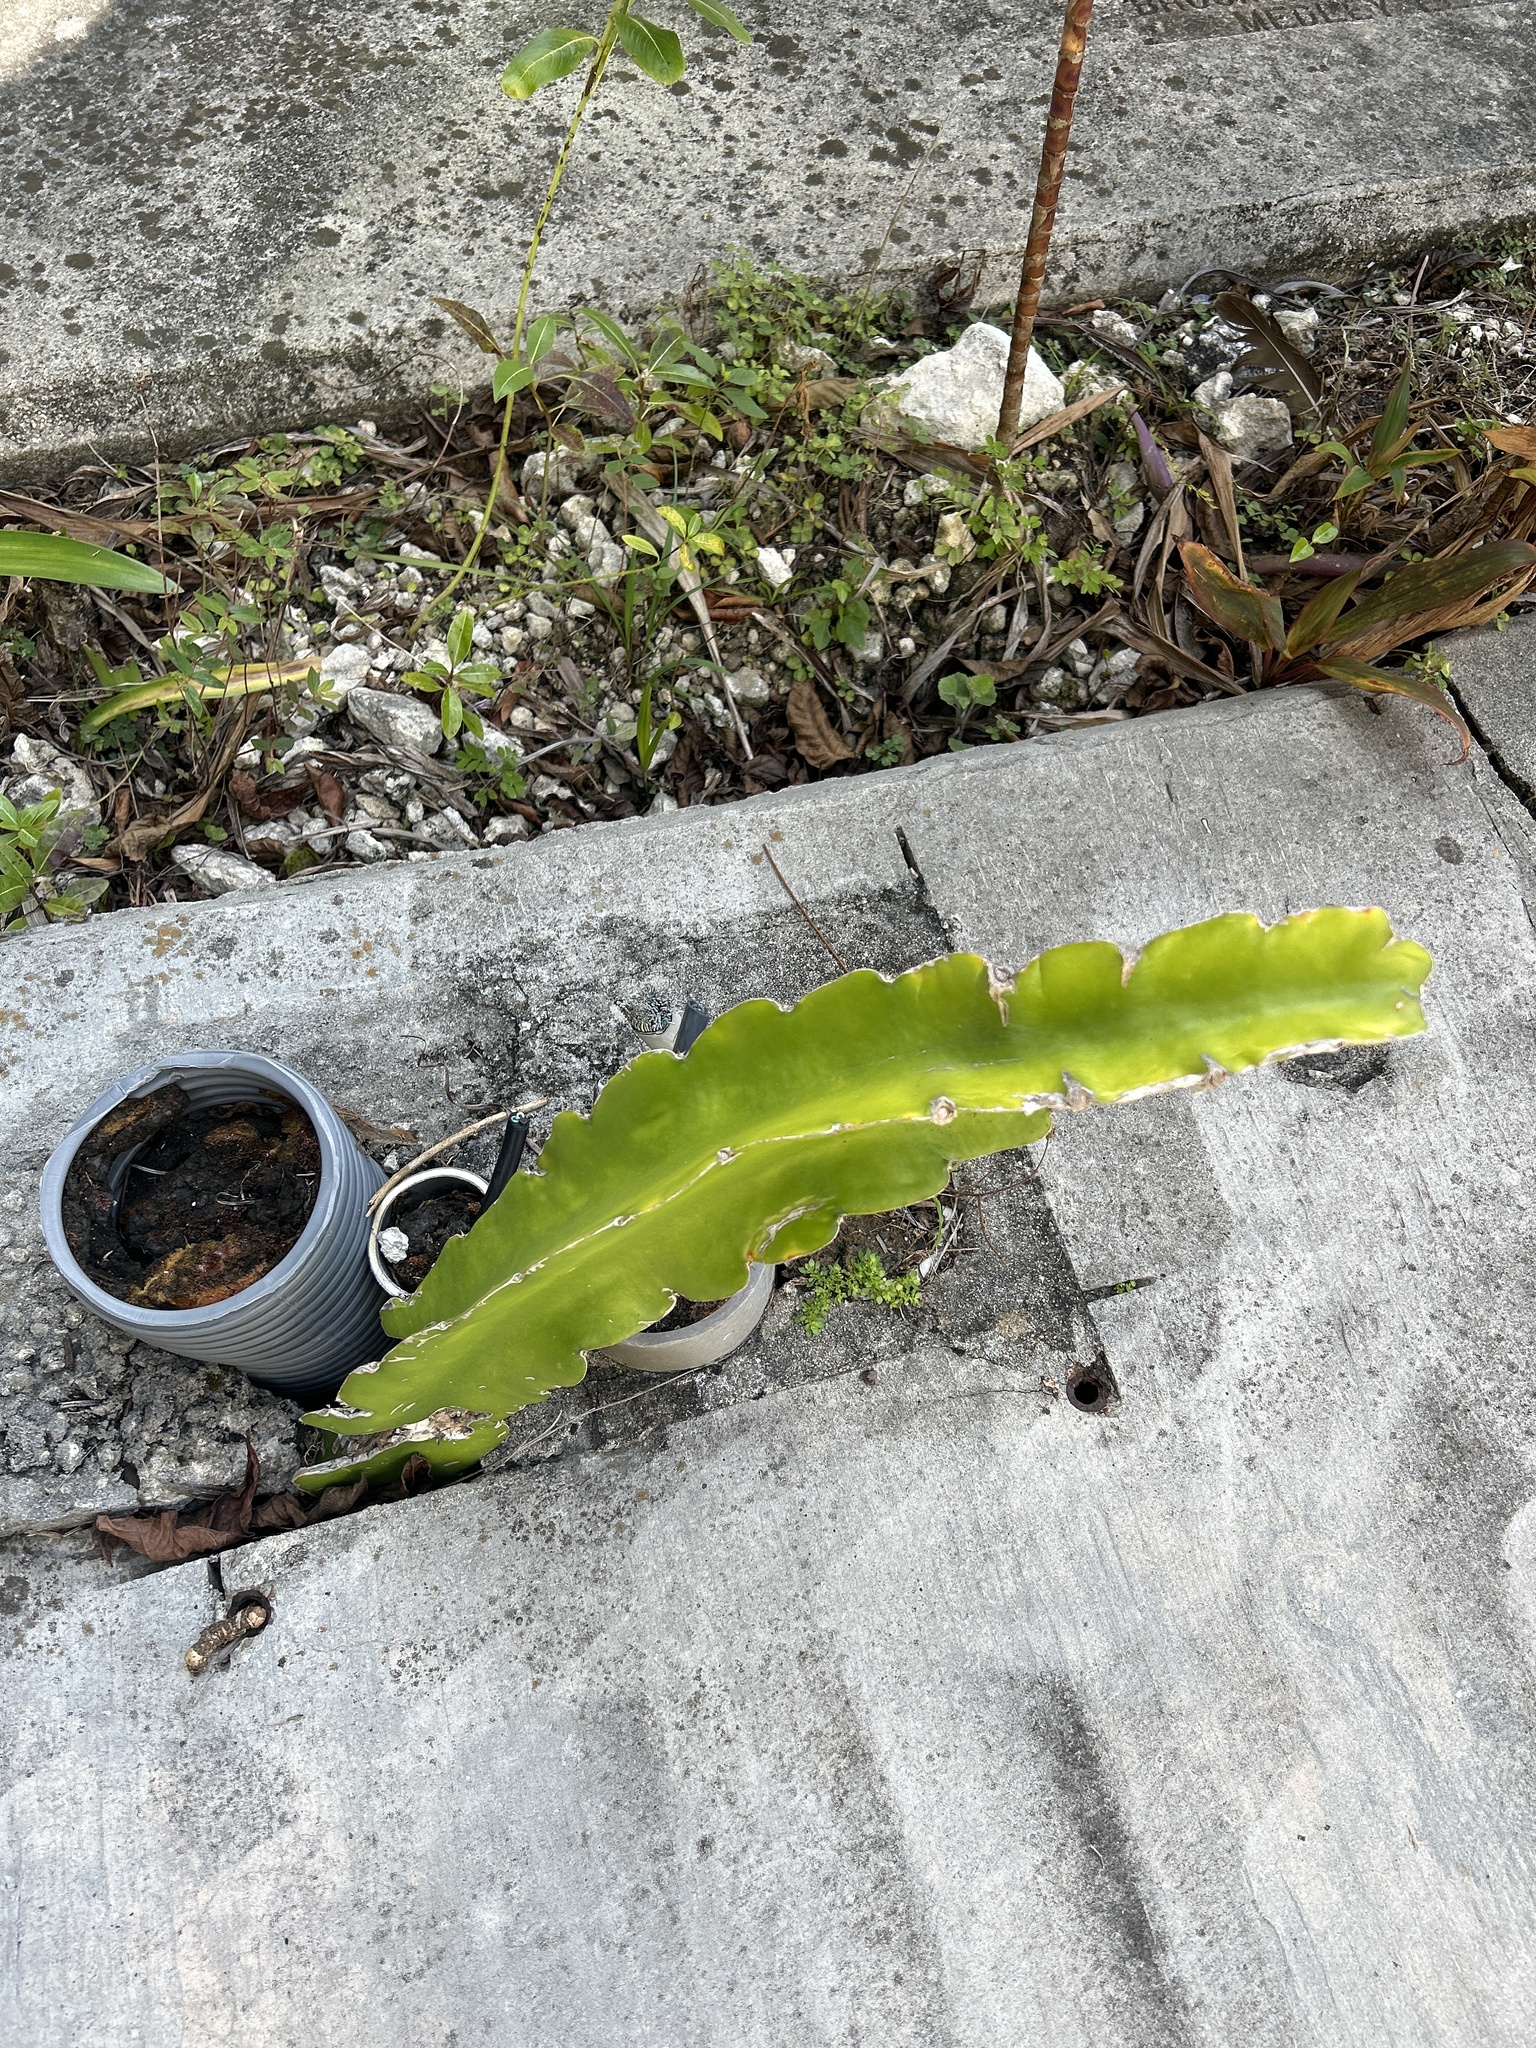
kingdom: Plantae
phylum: Tracheophyta
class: Magnoliopsida
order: Caryophyllales
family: Cactaceae
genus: Selenicereus
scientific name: Selenicereus undatus
